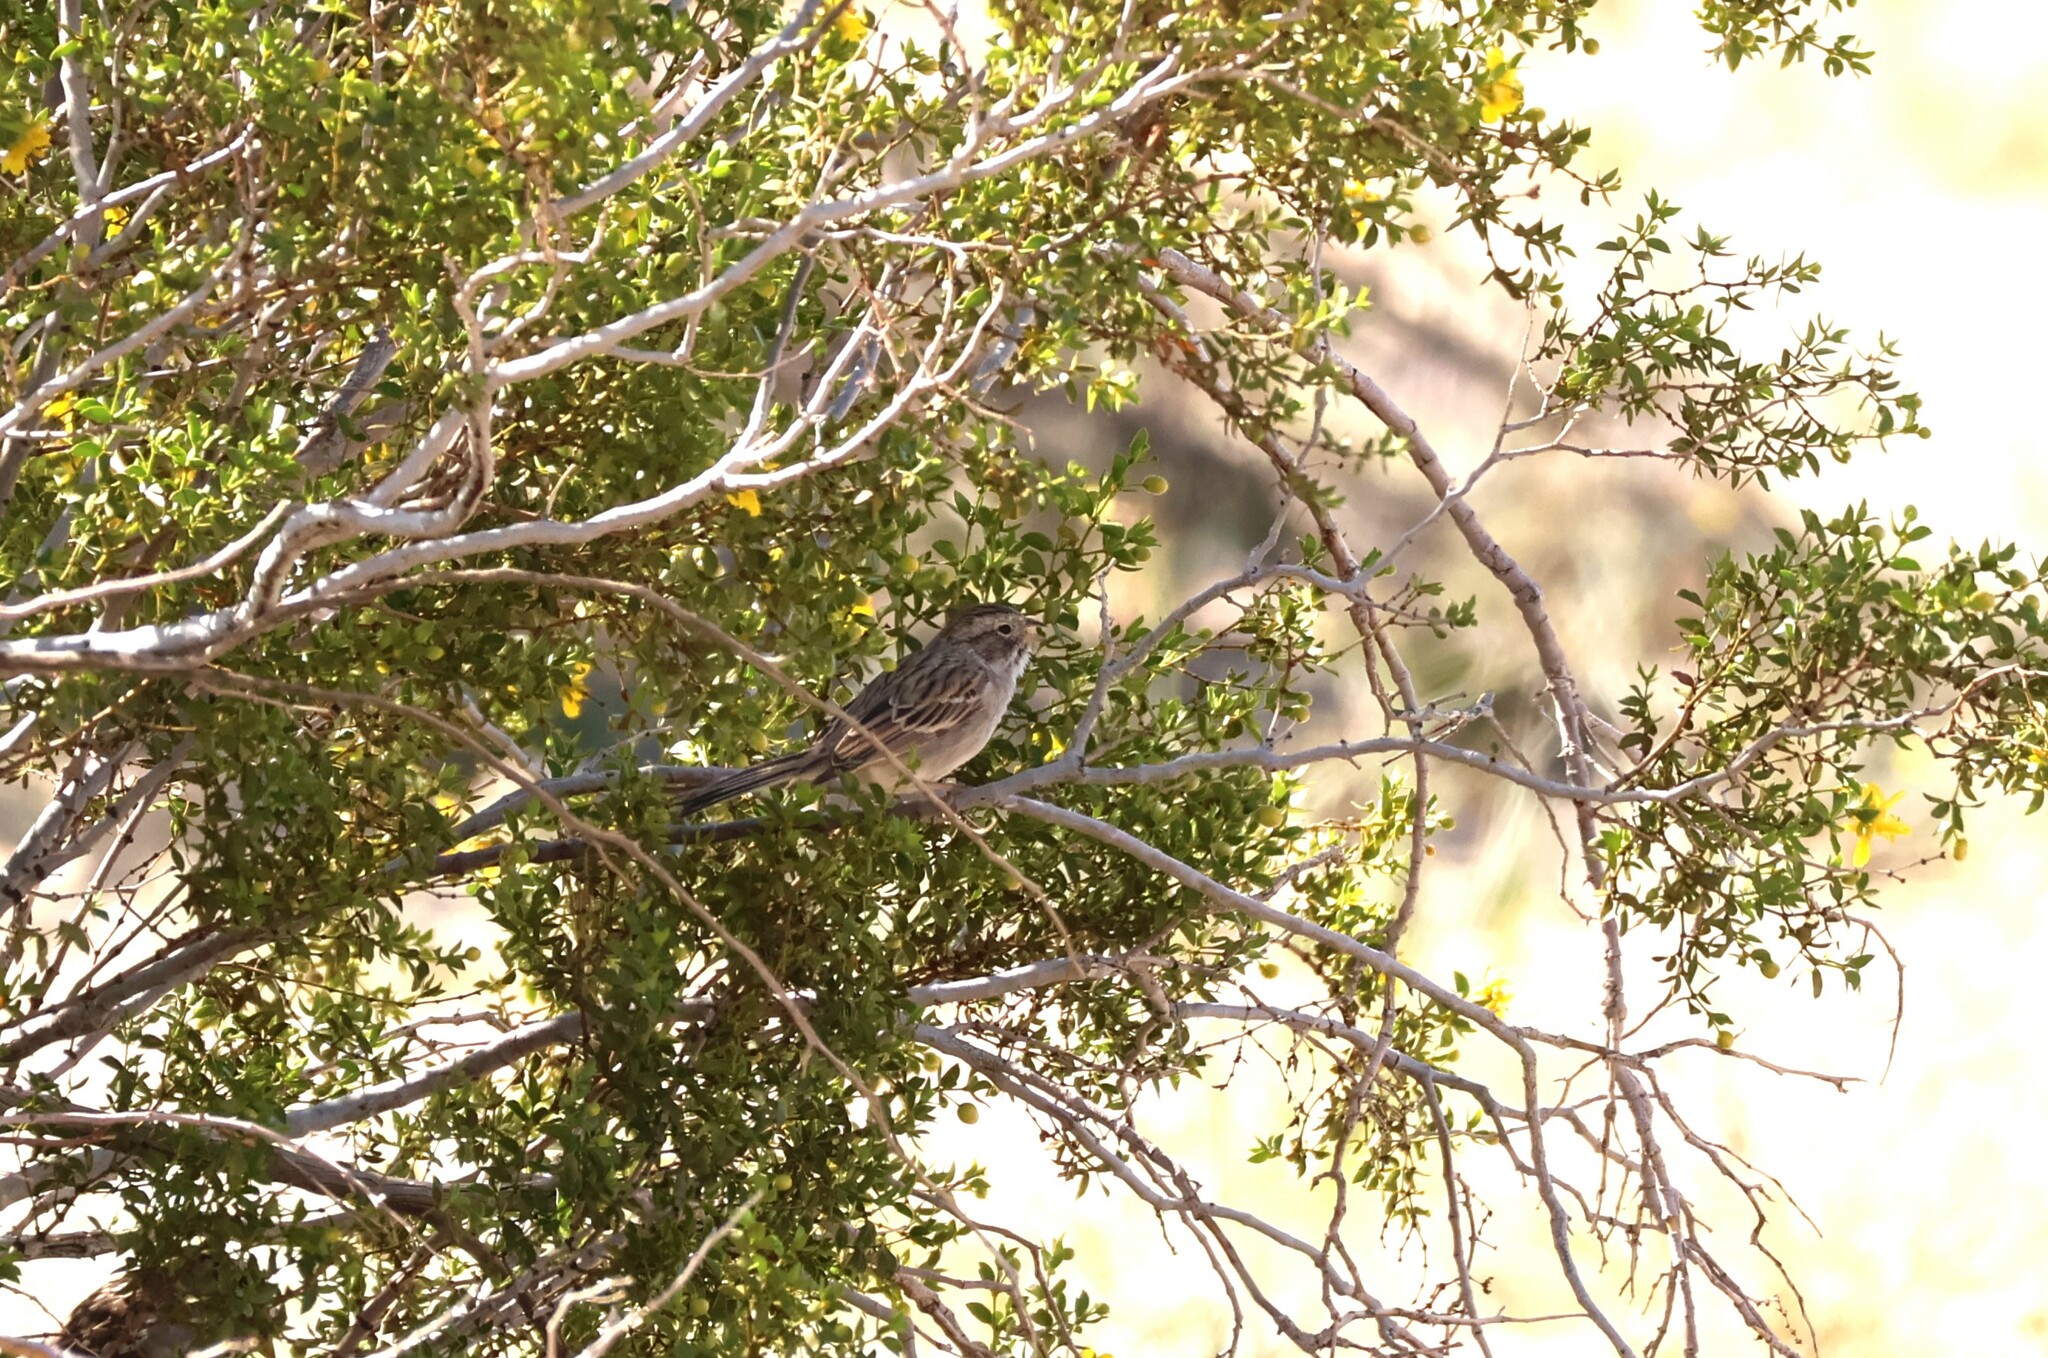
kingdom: Animalia
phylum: Chordata
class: Aves
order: Passeriformes
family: Passerellidae
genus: Spizella
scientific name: Spizella breweri
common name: Brewer's sparrow
